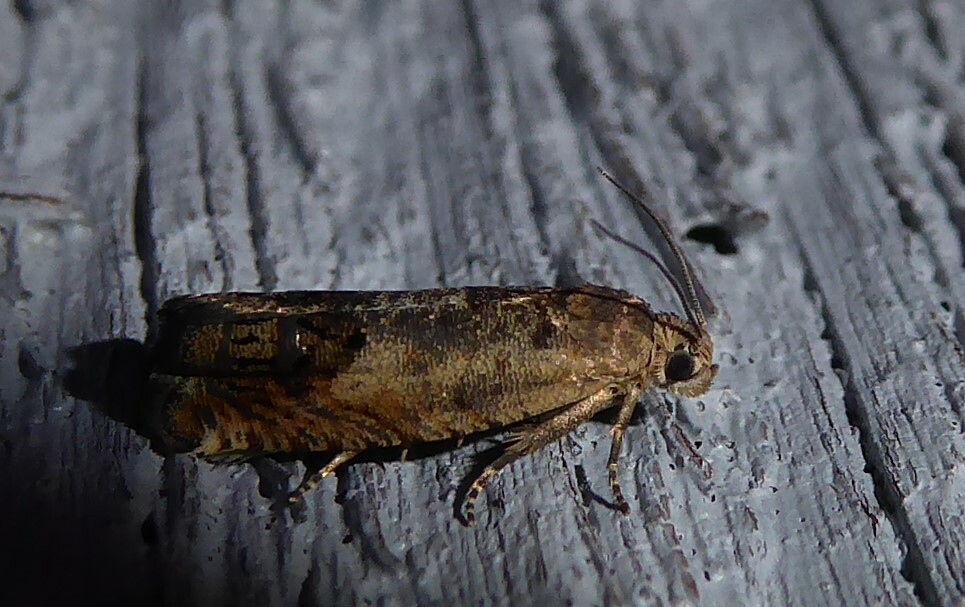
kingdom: Animalia
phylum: Arthropoda
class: Insecta
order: Lepidoptera
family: Tortricidae
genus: Cydia
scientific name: Cydia succedana
